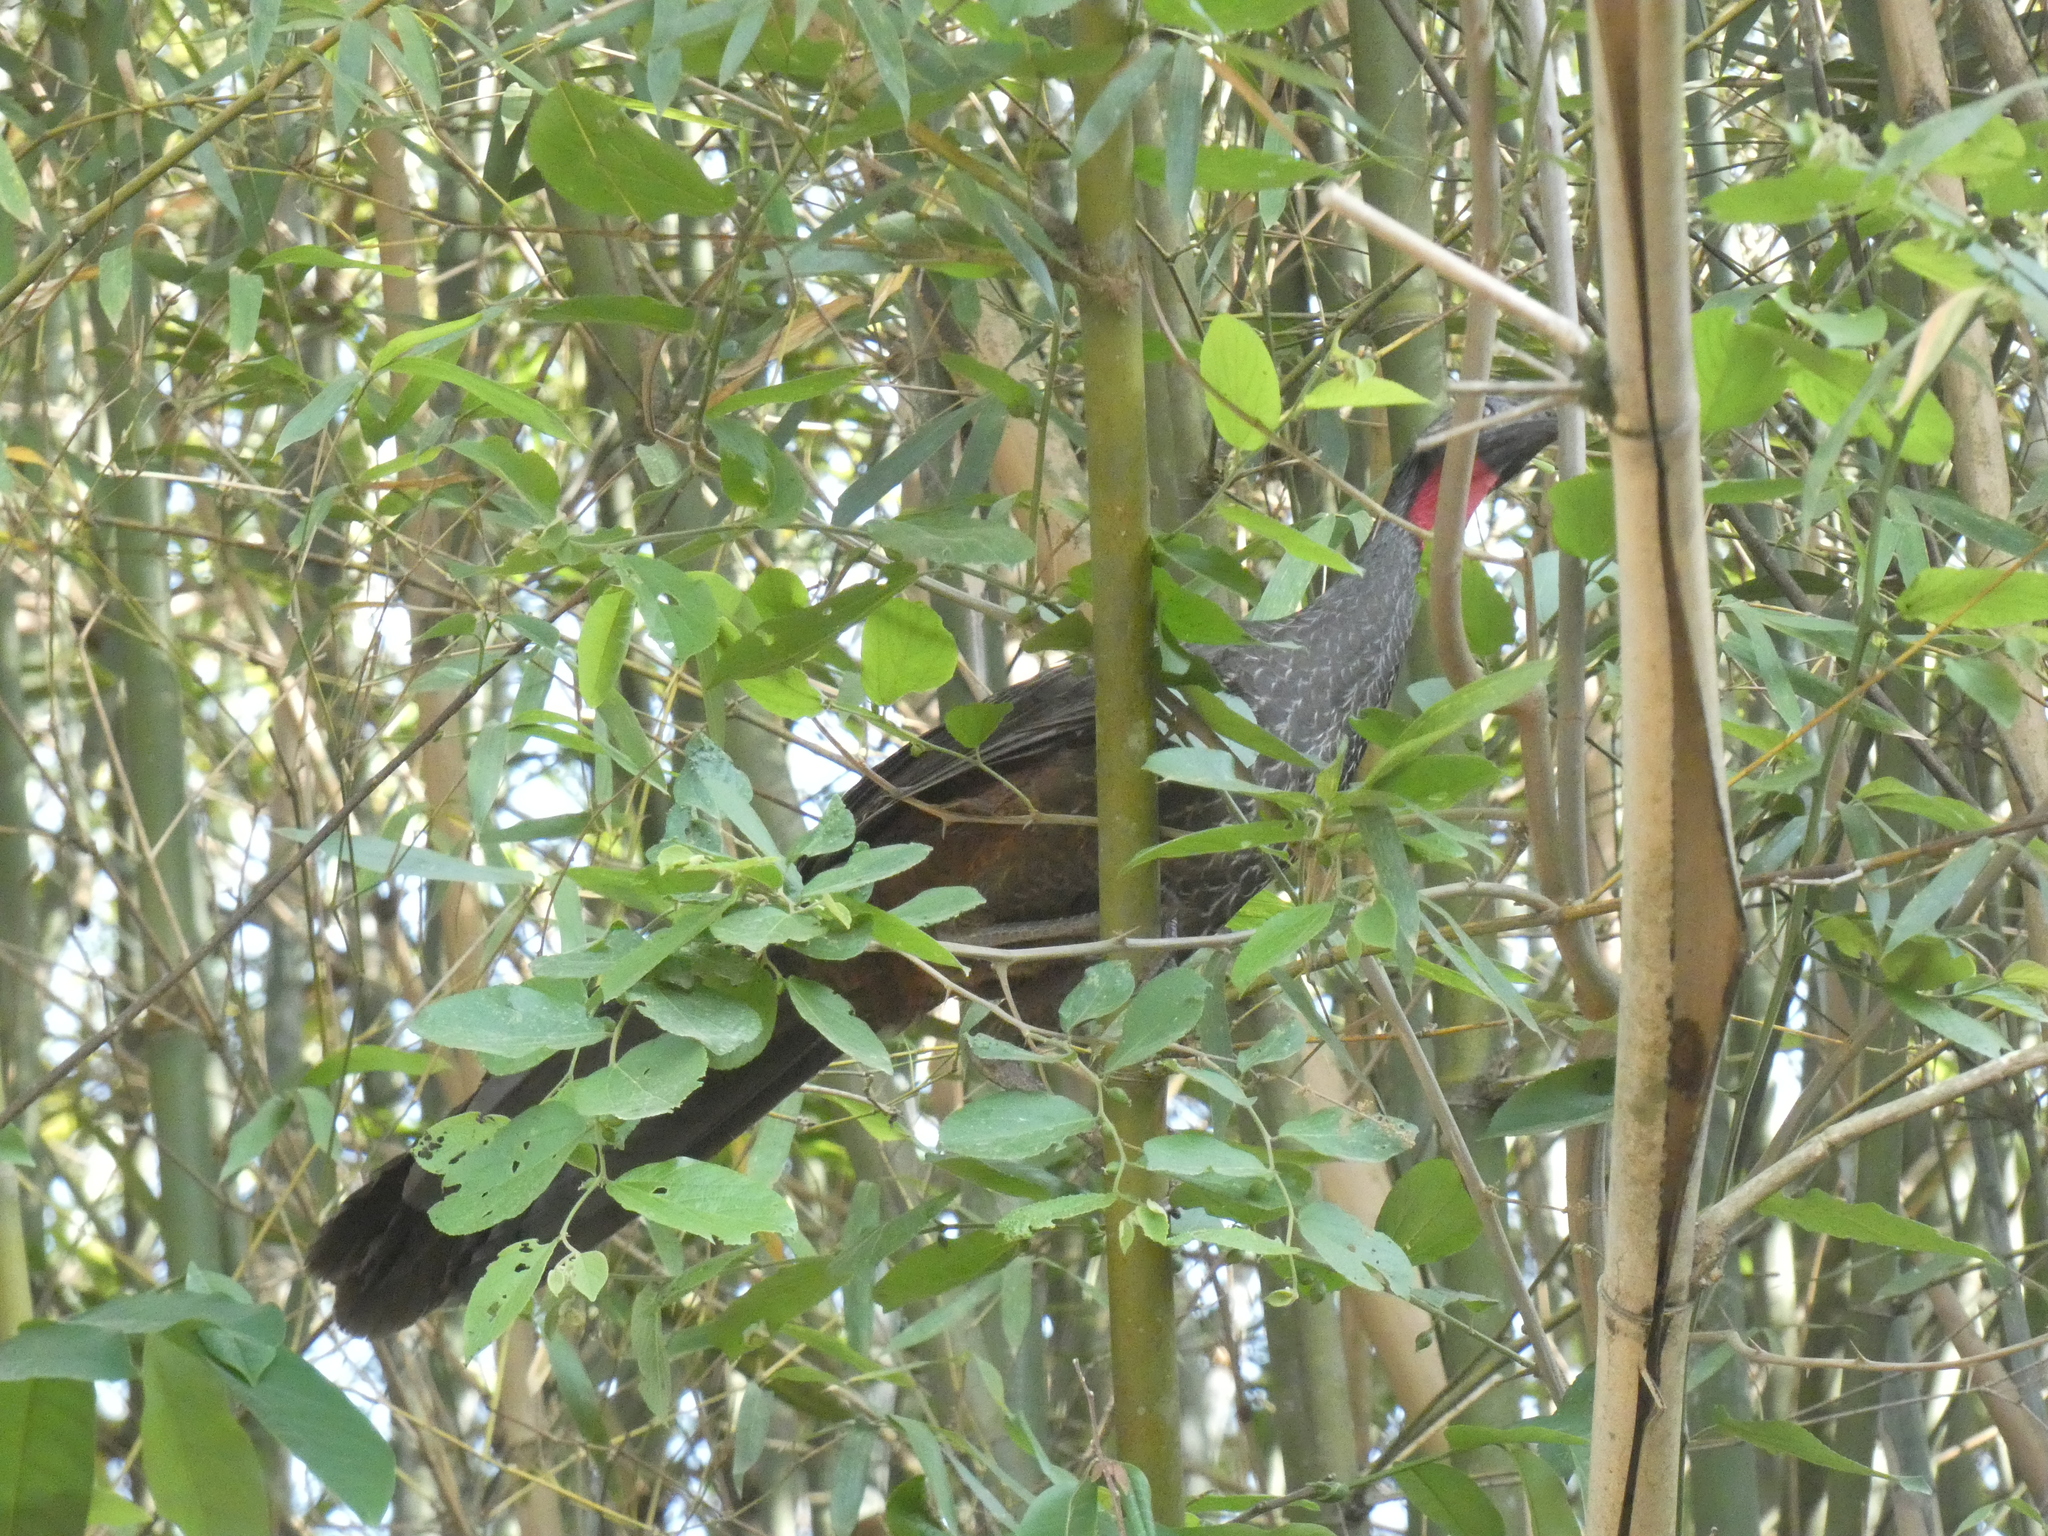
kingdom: Animalia
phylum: Chordata
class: Aves
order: Galliformes
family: Cracidae
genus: Penelope
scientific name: Penelope obscura
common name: Dusky-legged guan
